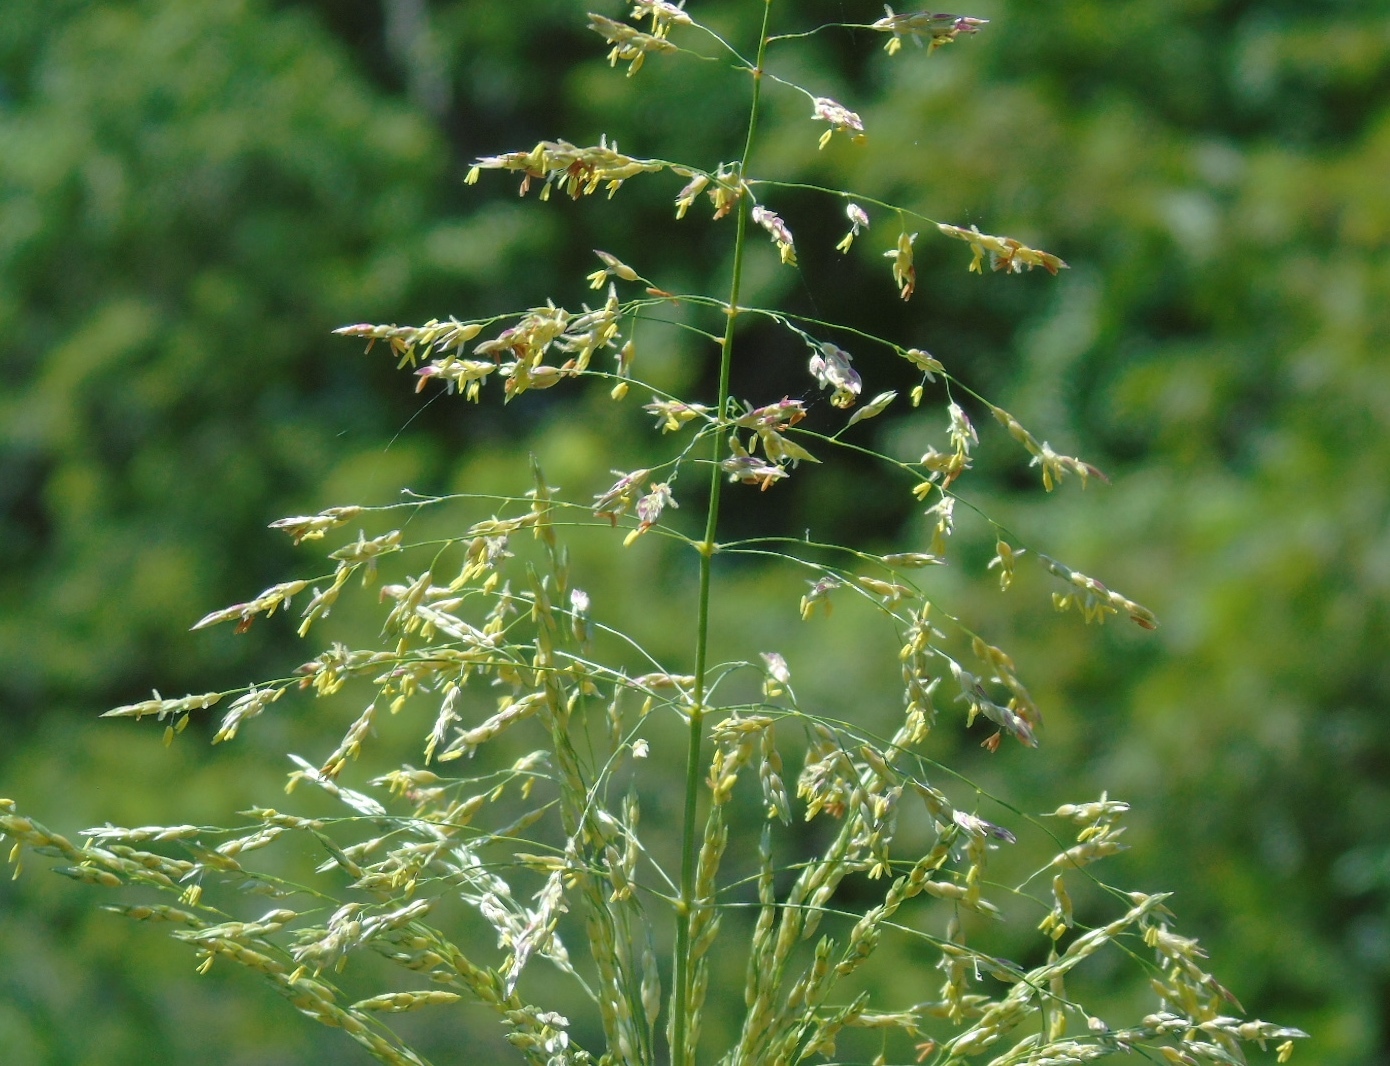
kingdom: Plantae
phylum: Tracheophyta
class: Liliopsida
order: Poales
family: Poaceae
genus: Sorghum
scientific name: Sorghum halepense
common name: Johnson-grass
